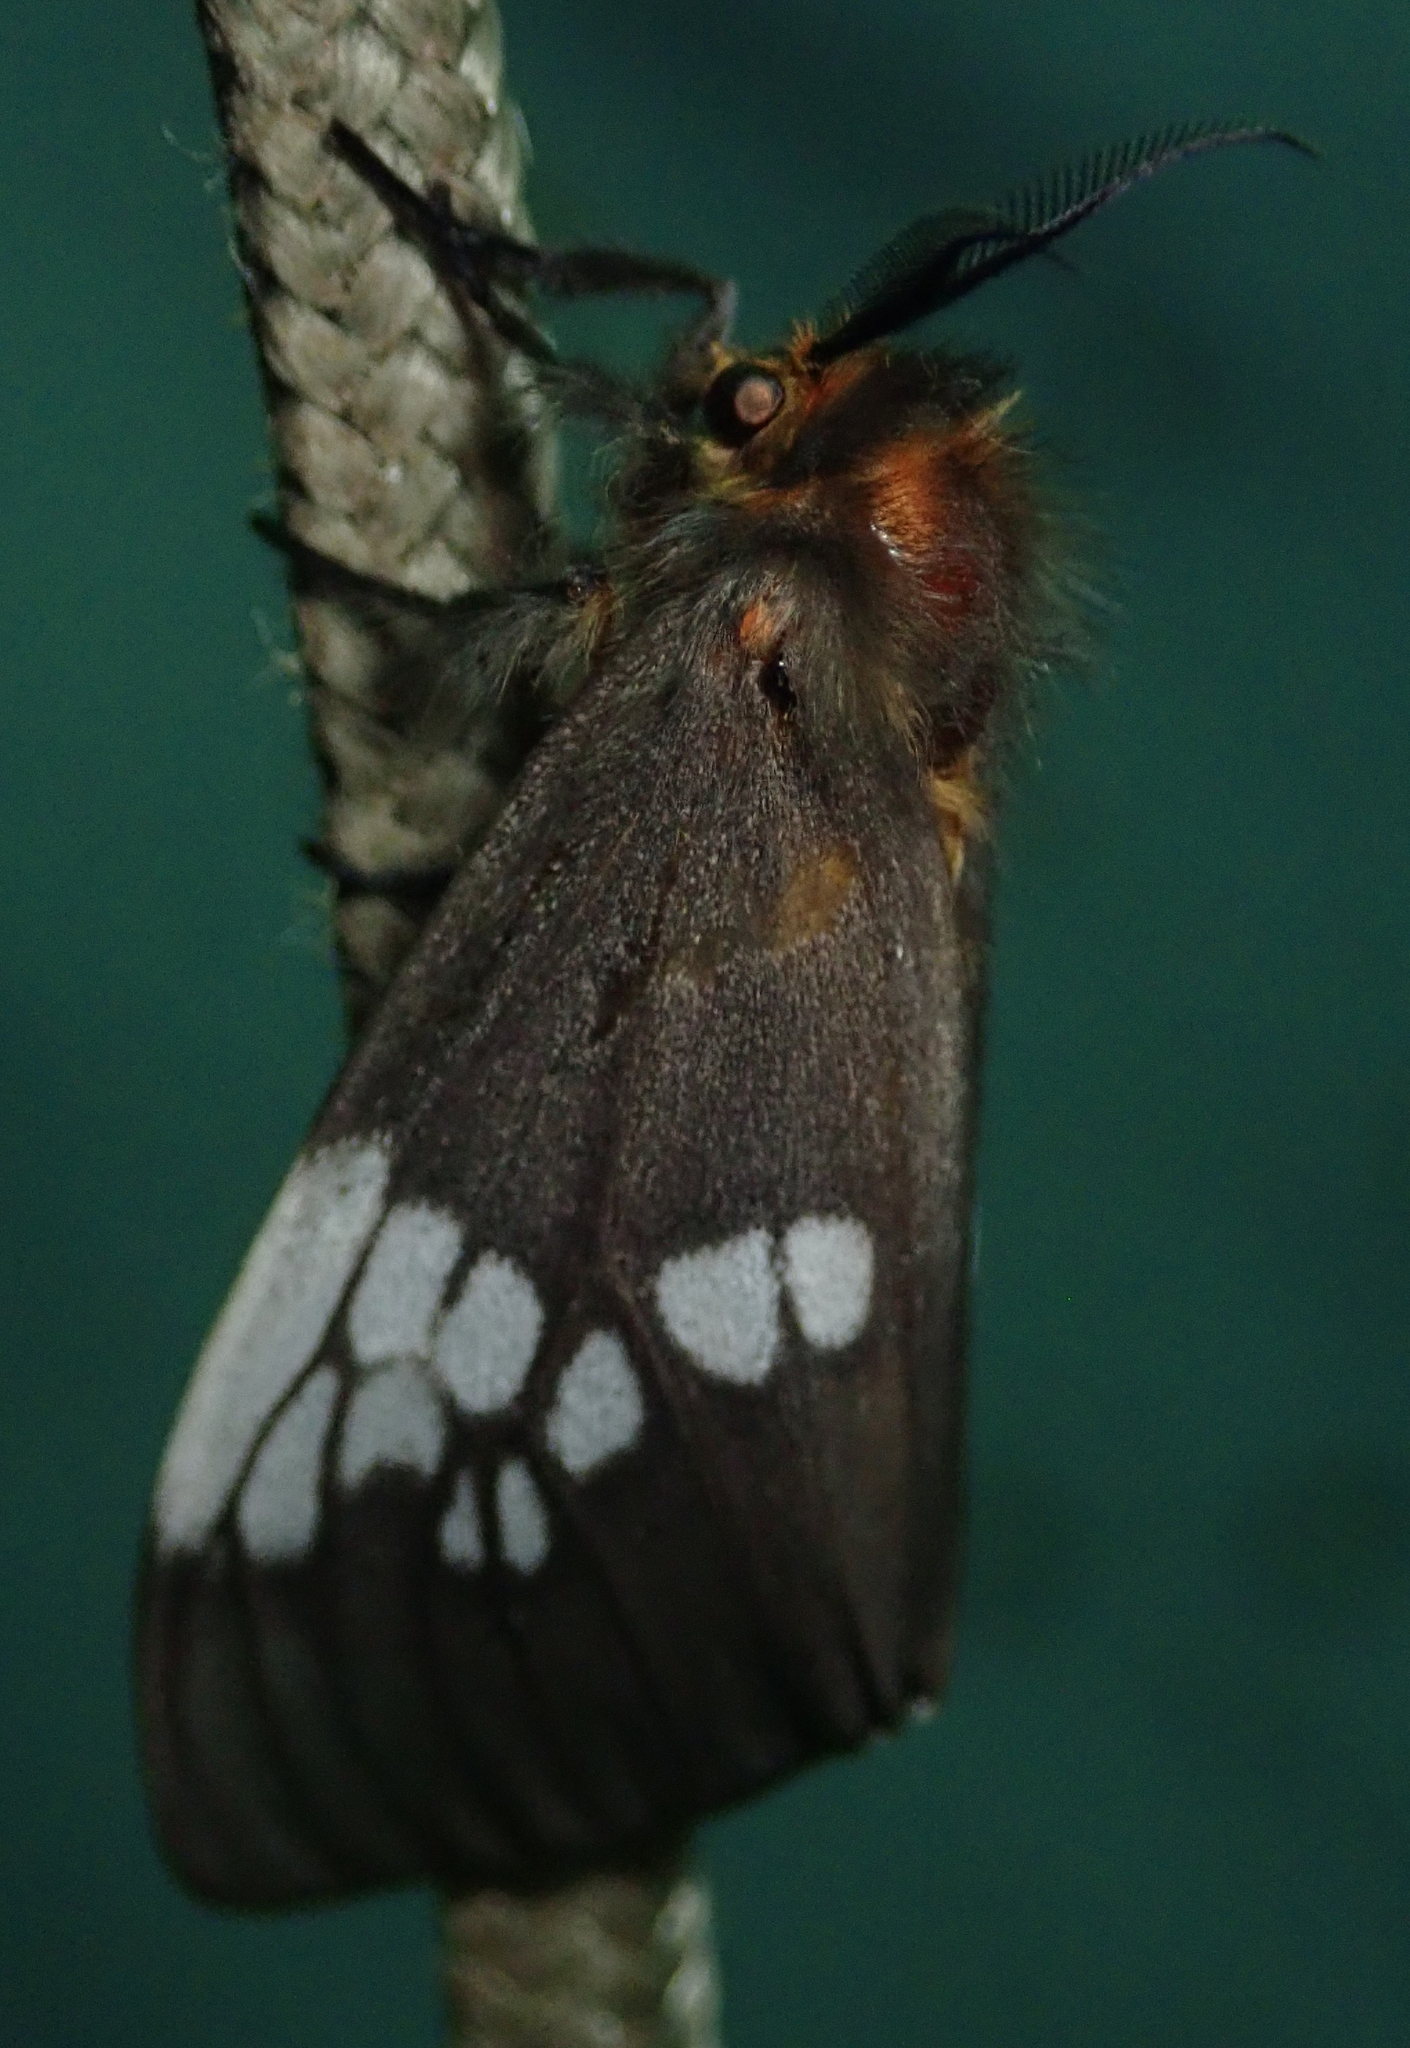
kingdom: Animalia
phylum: Arthropoda
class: Insecta
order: Lepidoptera
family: Erebidae
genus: Palasea
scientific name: Palasea albimacula
